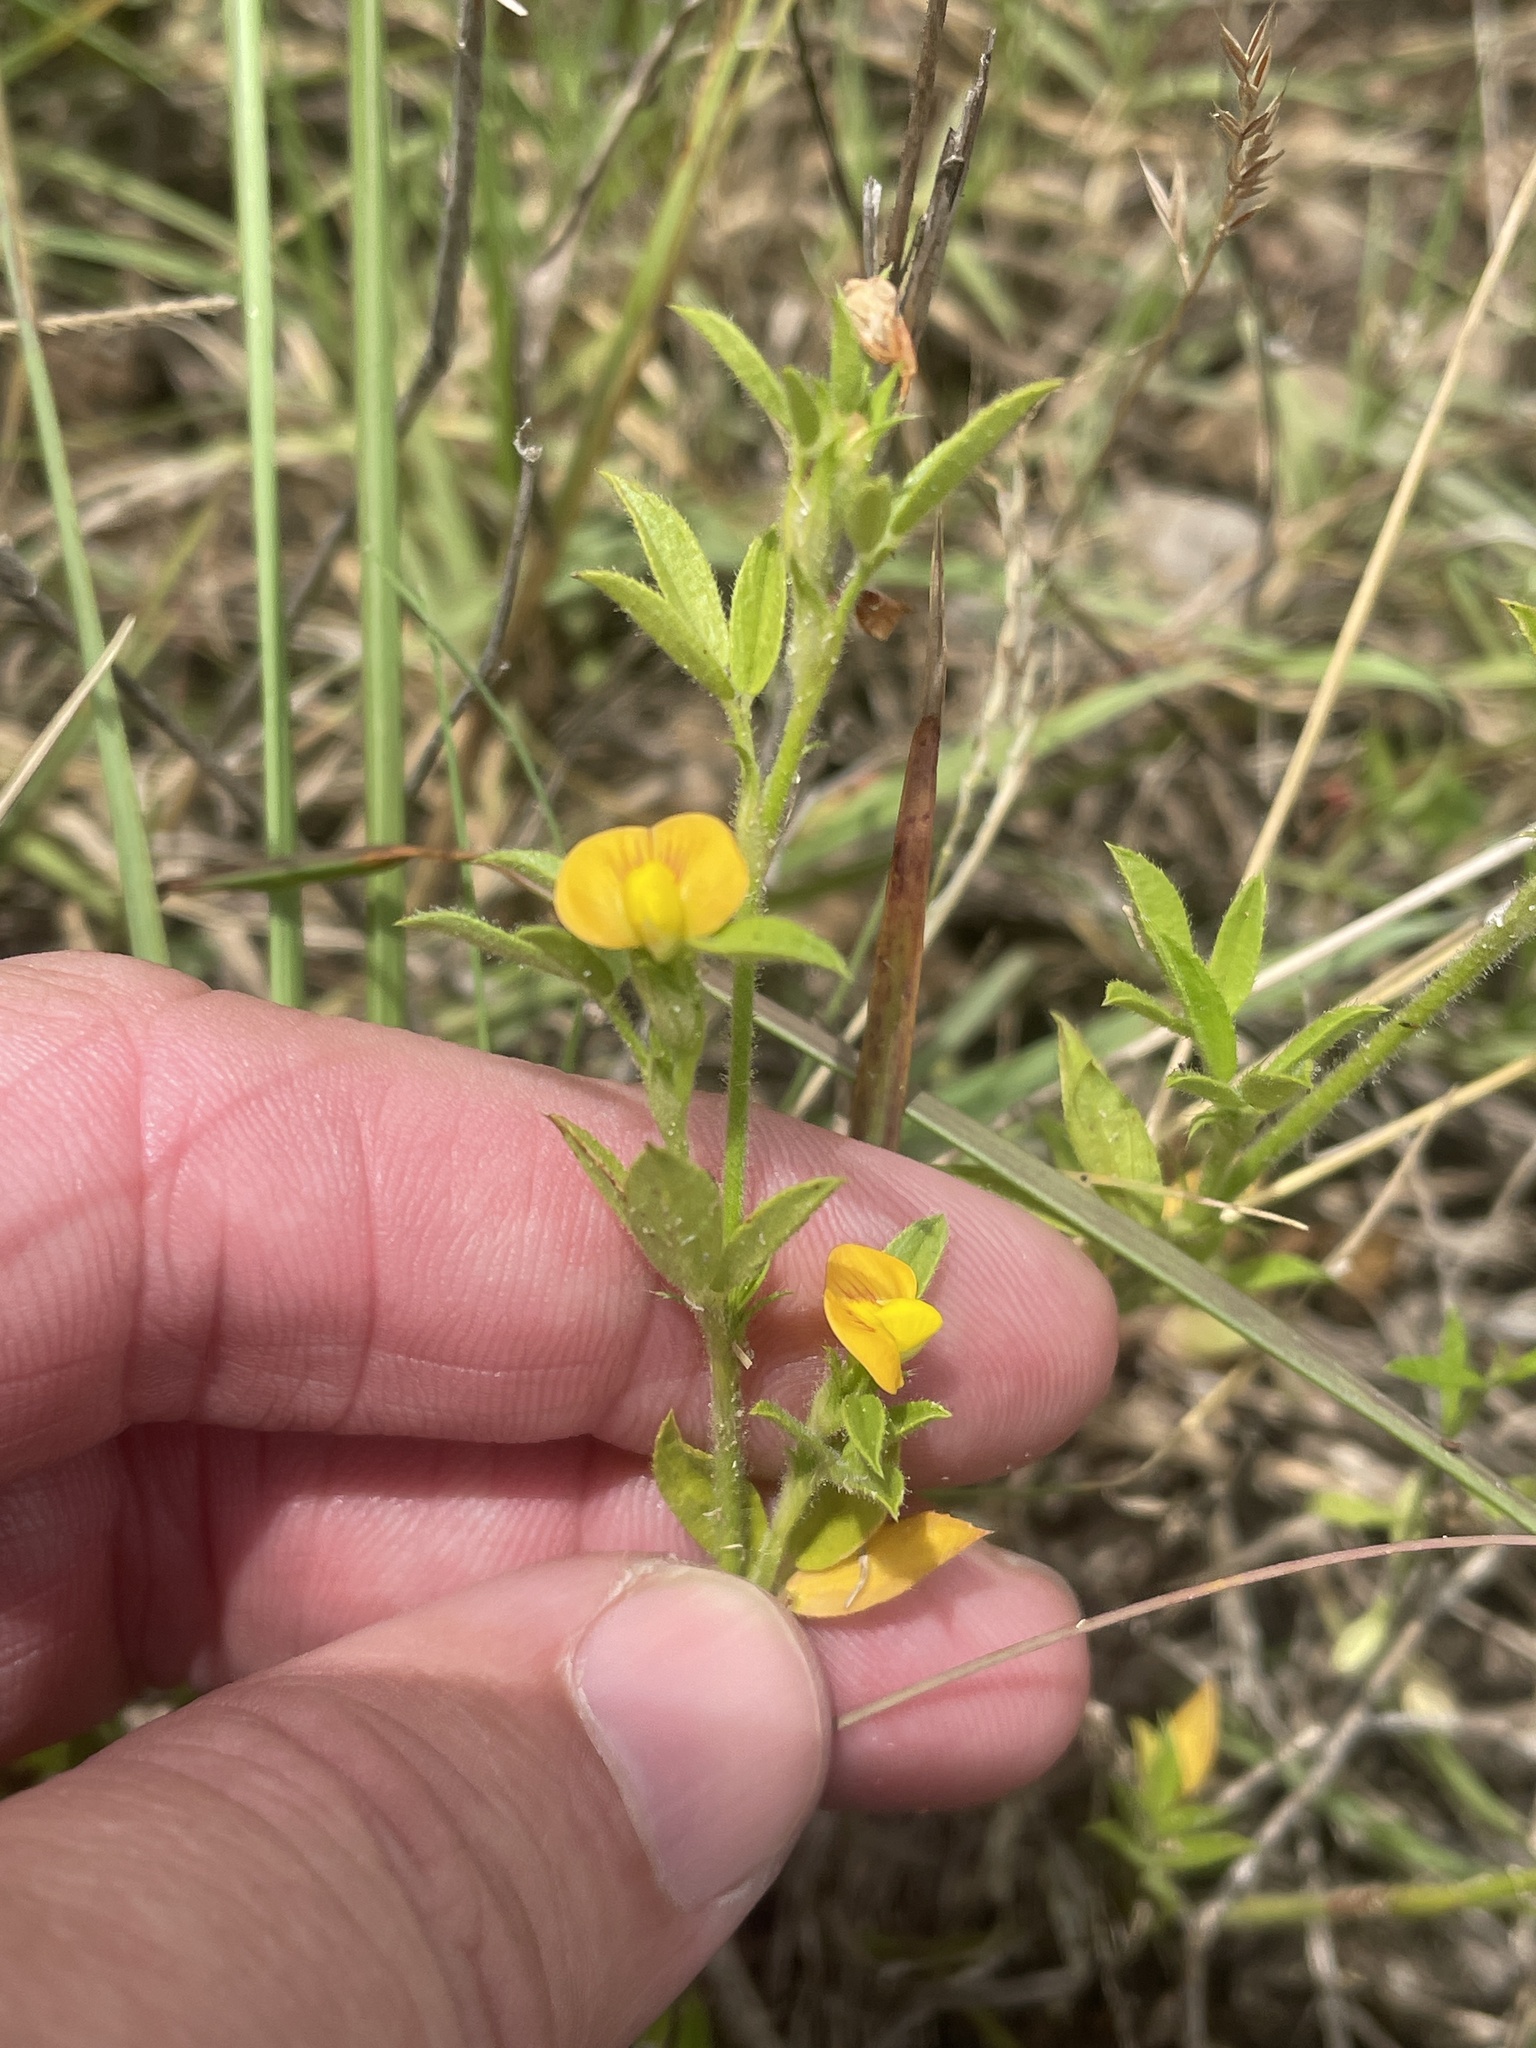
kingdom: Plantae
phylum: Tracheophyta
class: Magnoliopsida
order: Fabales
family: Fabaceae
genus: Stylosanthes
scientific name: Stylosanthes biflora
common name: Two-flower pencil-flower
